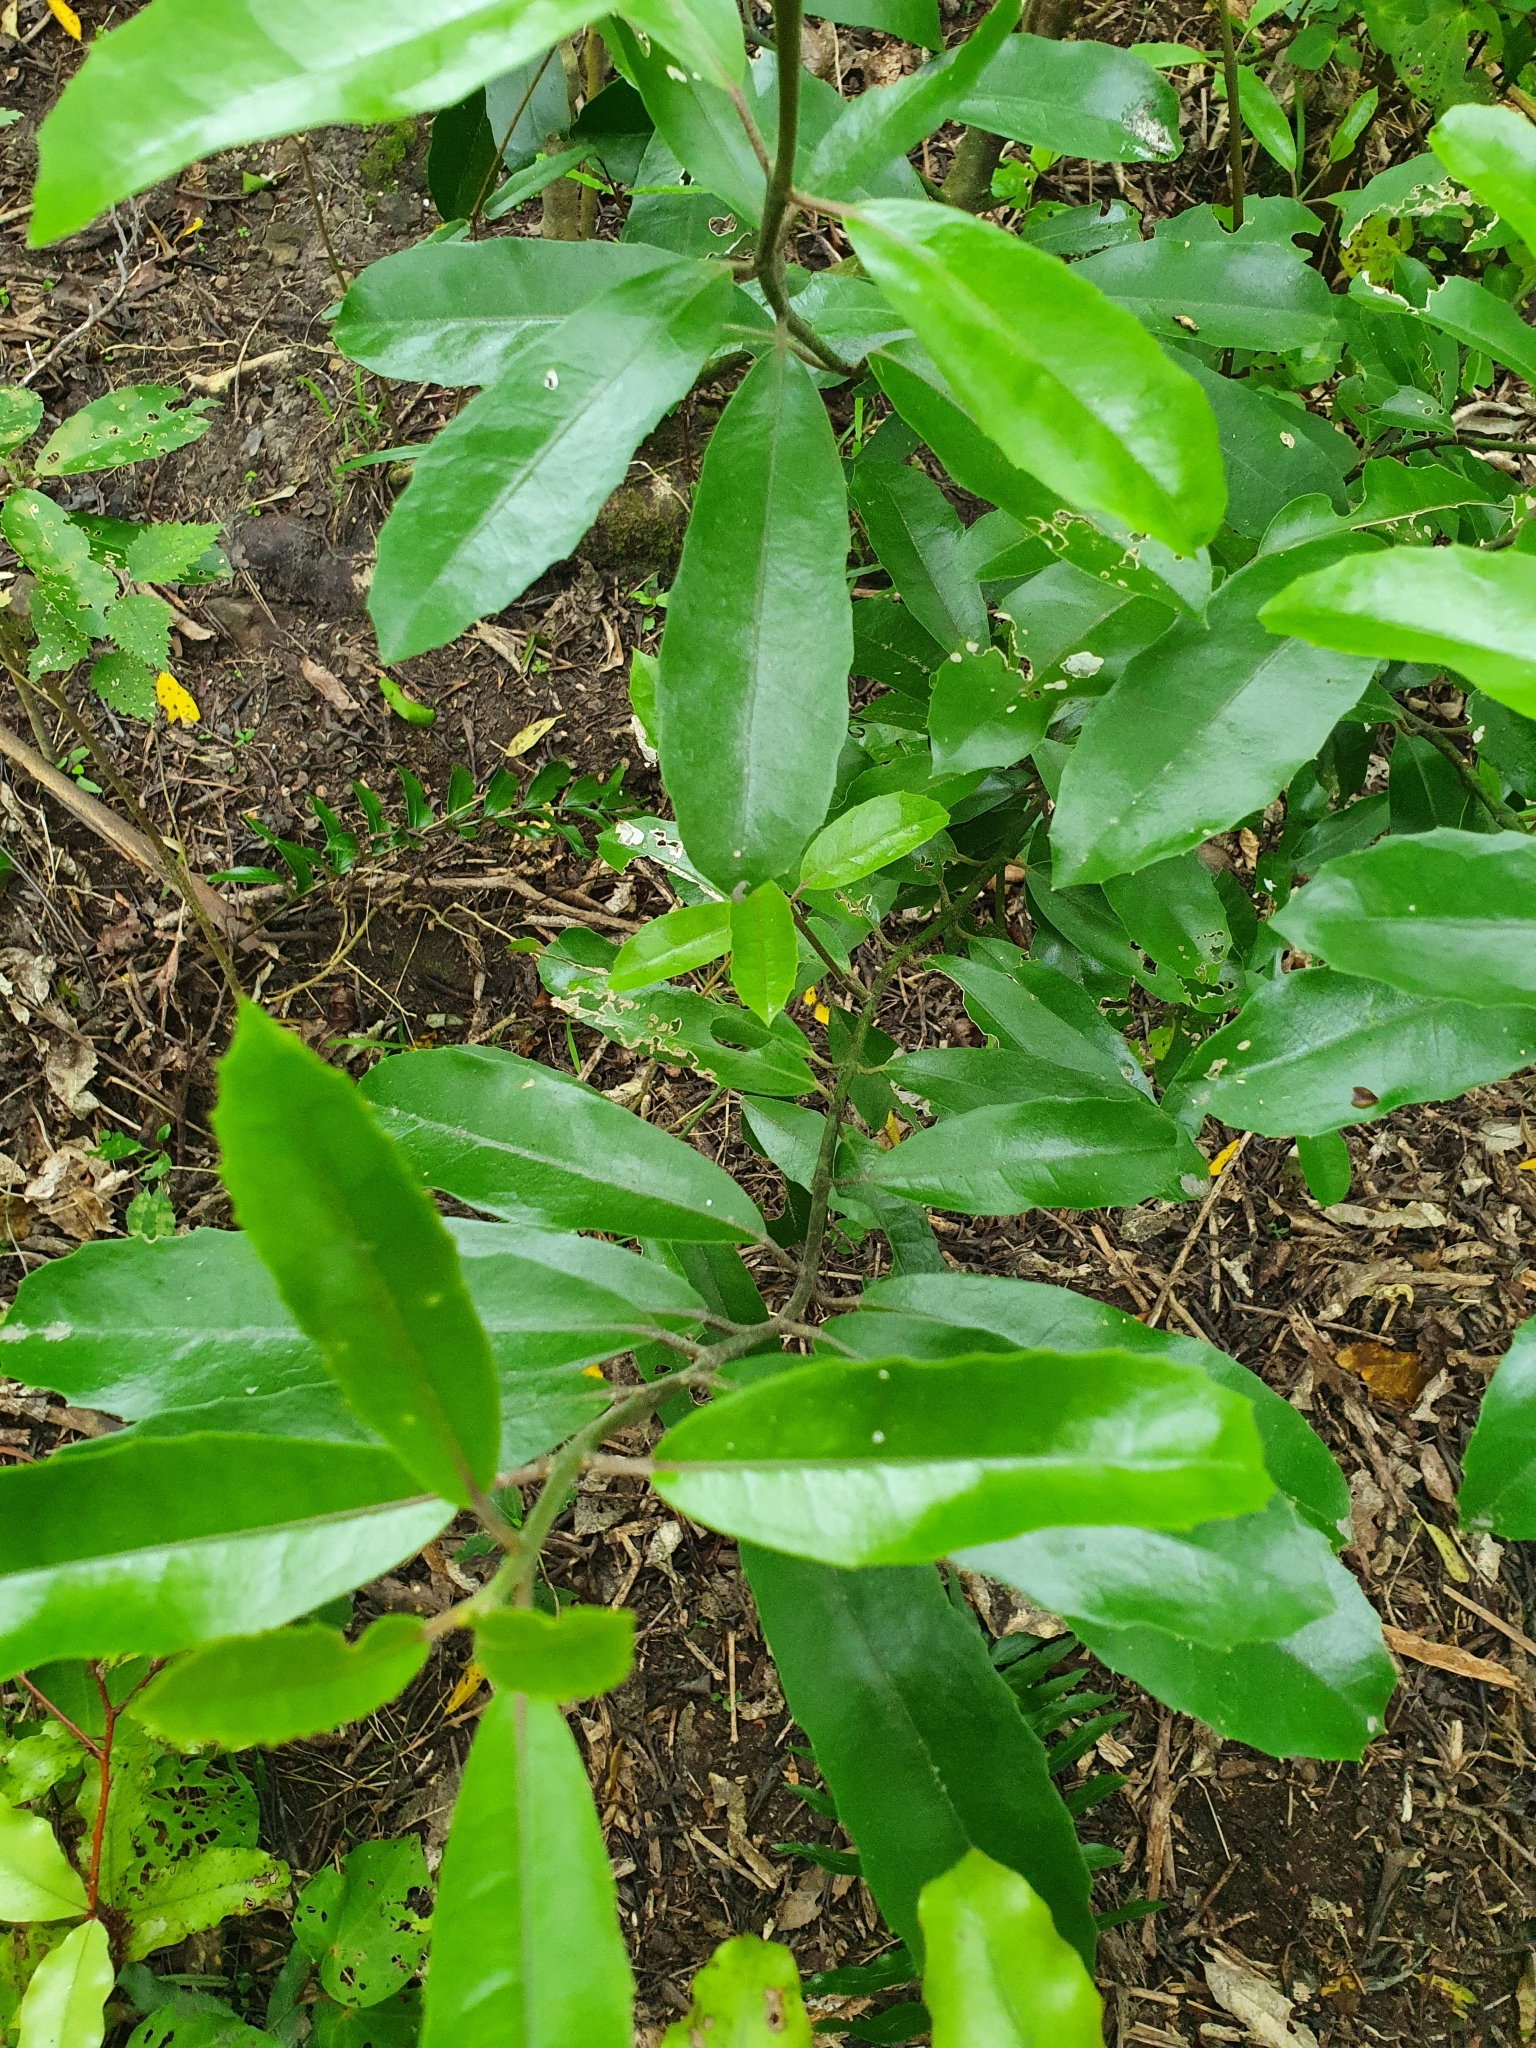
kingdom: Plantae
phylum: Tracheophyta
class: Magnoliopsida
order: Laurales
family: Monimiaceae
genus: Hedycarya
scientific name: Hedycarya arborea
